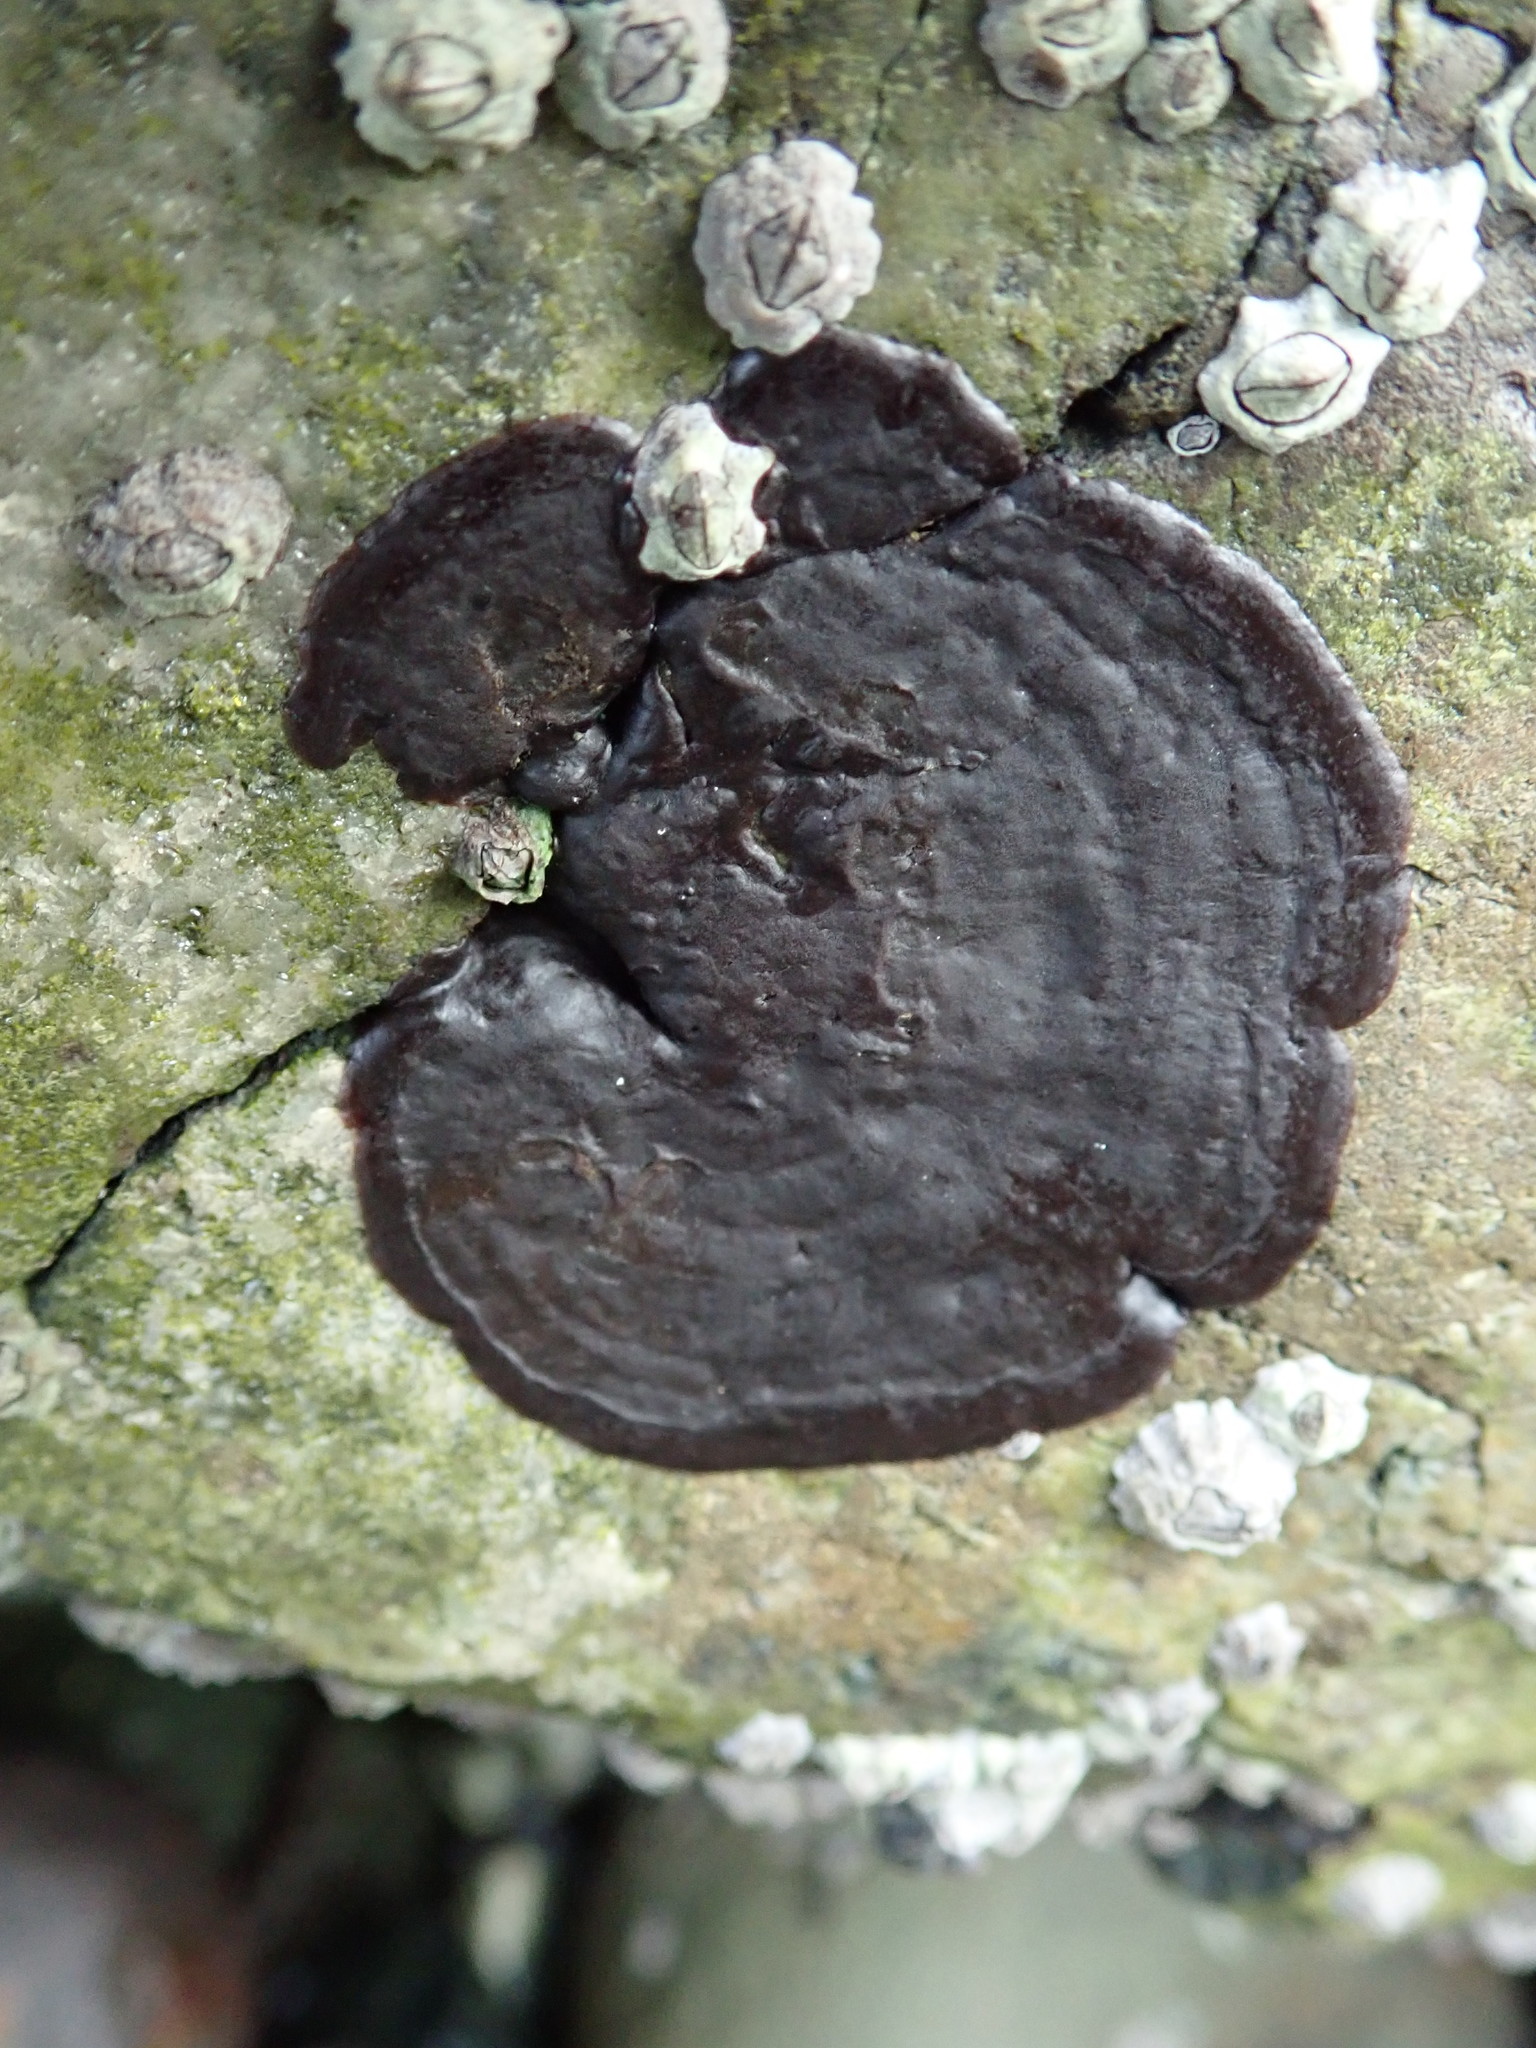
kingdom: Plantae
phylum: Rhodophyta
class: Florideophyceae
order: Gigartinales
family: Phyllophoraceae
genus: Mastocarpus
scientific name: Mastocarpus papillatus
